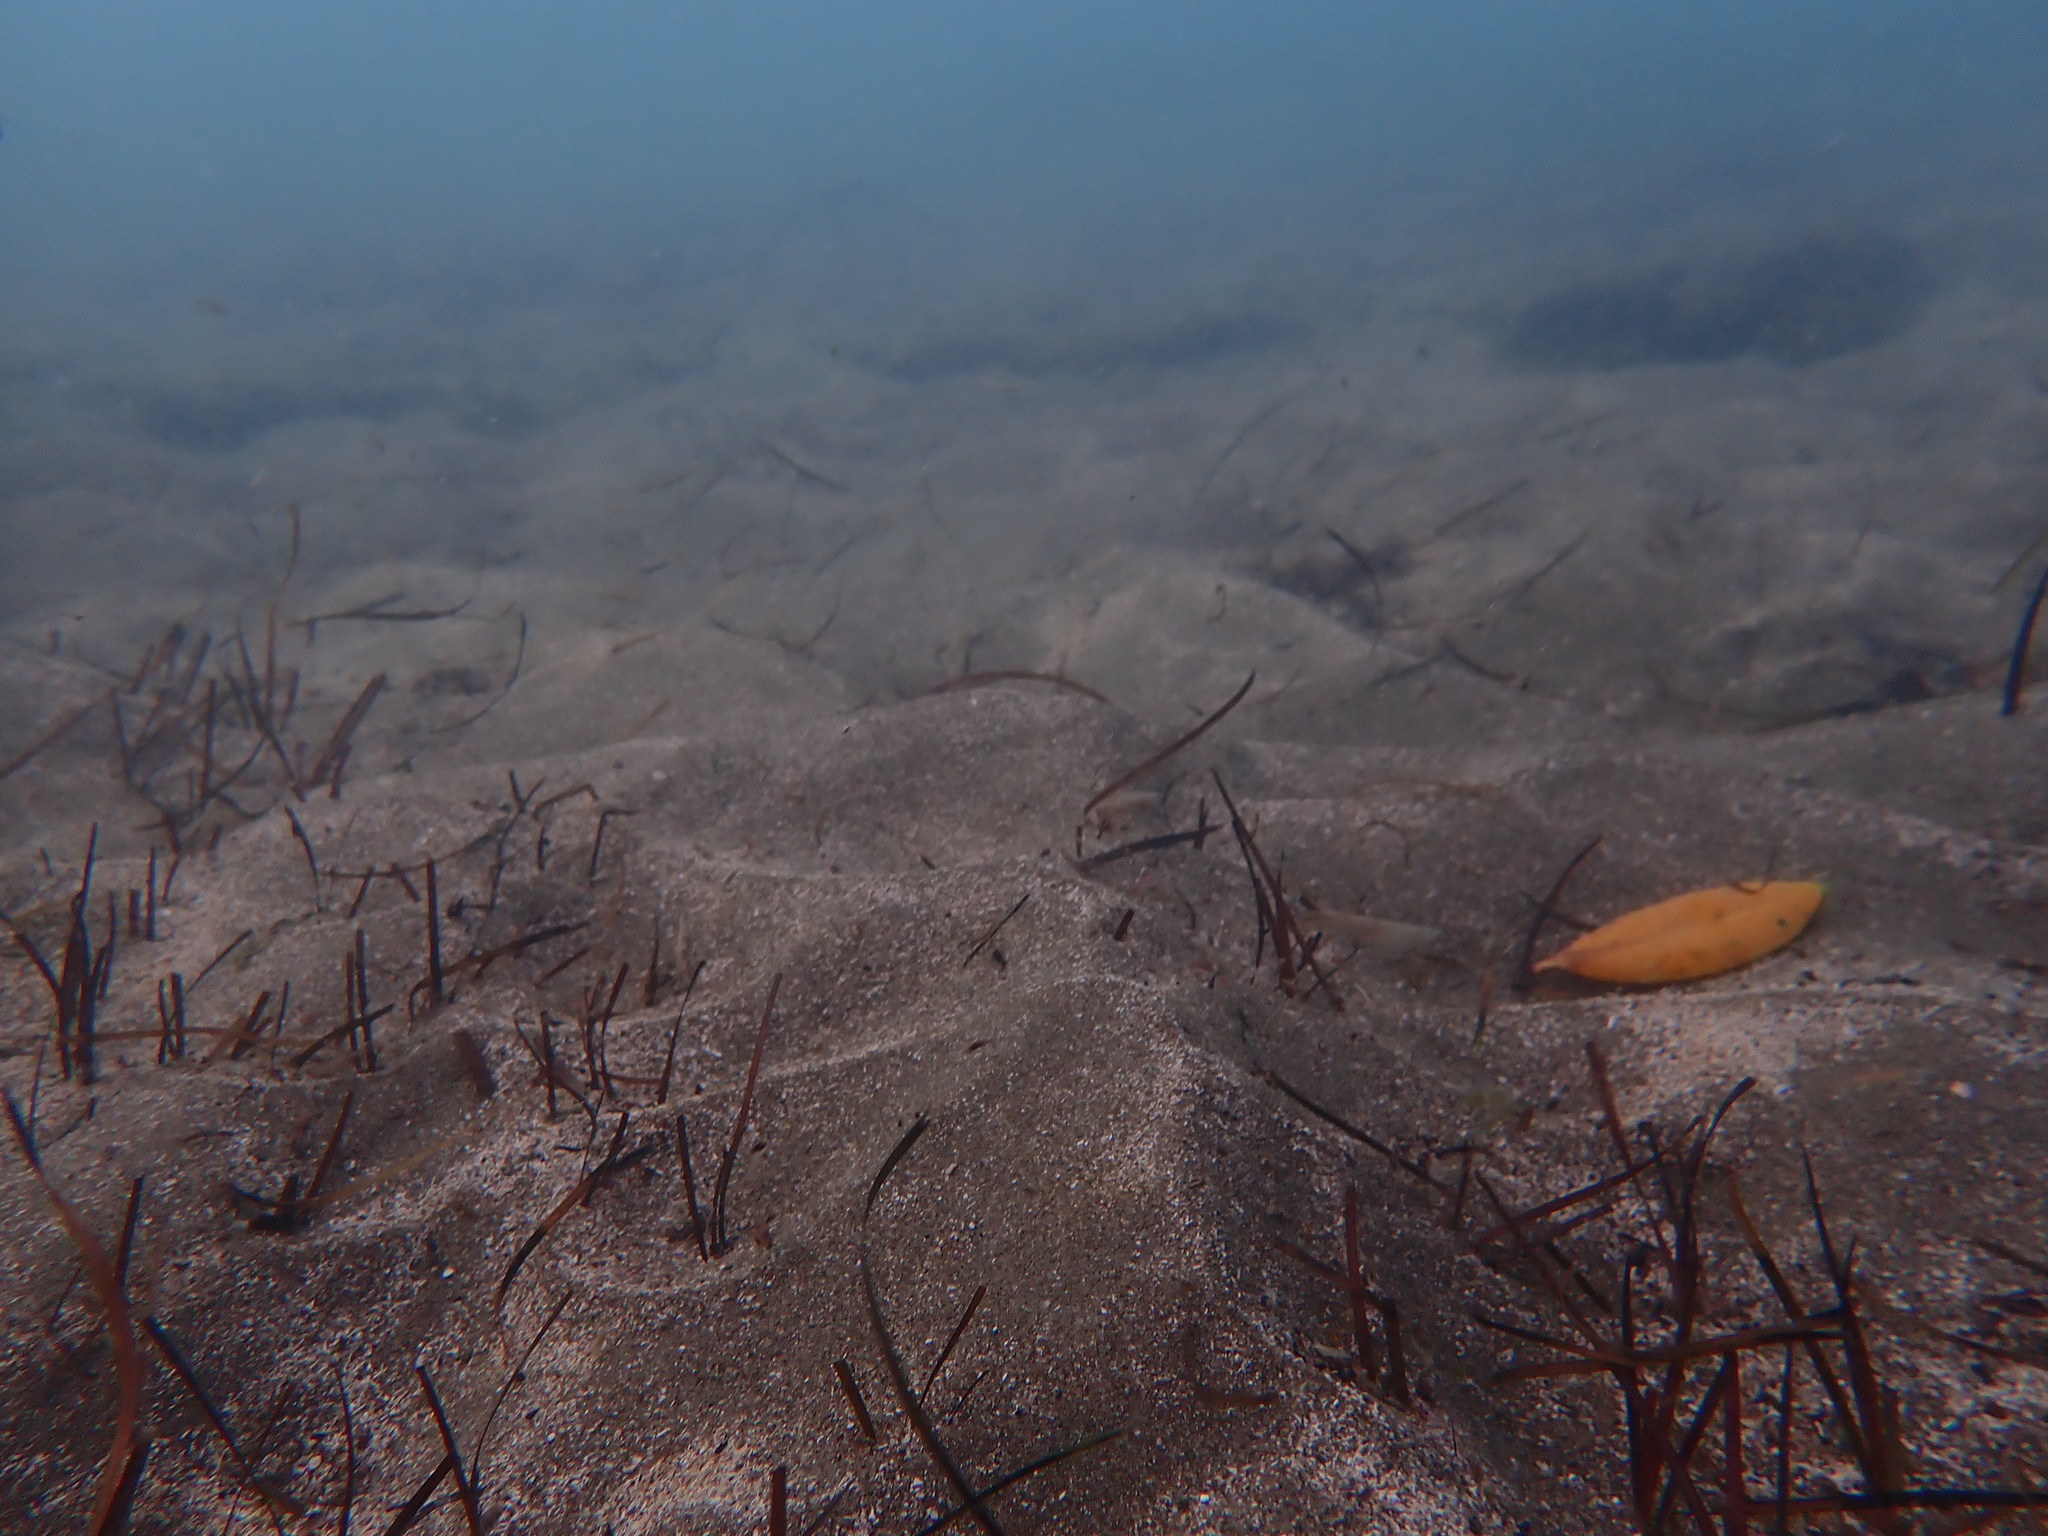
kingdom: Plantae
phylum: Tracheophyta
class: Liliopsida
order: Alismatales
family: Zosteraceae
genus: Zostera
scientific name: Zostera novazelandica
